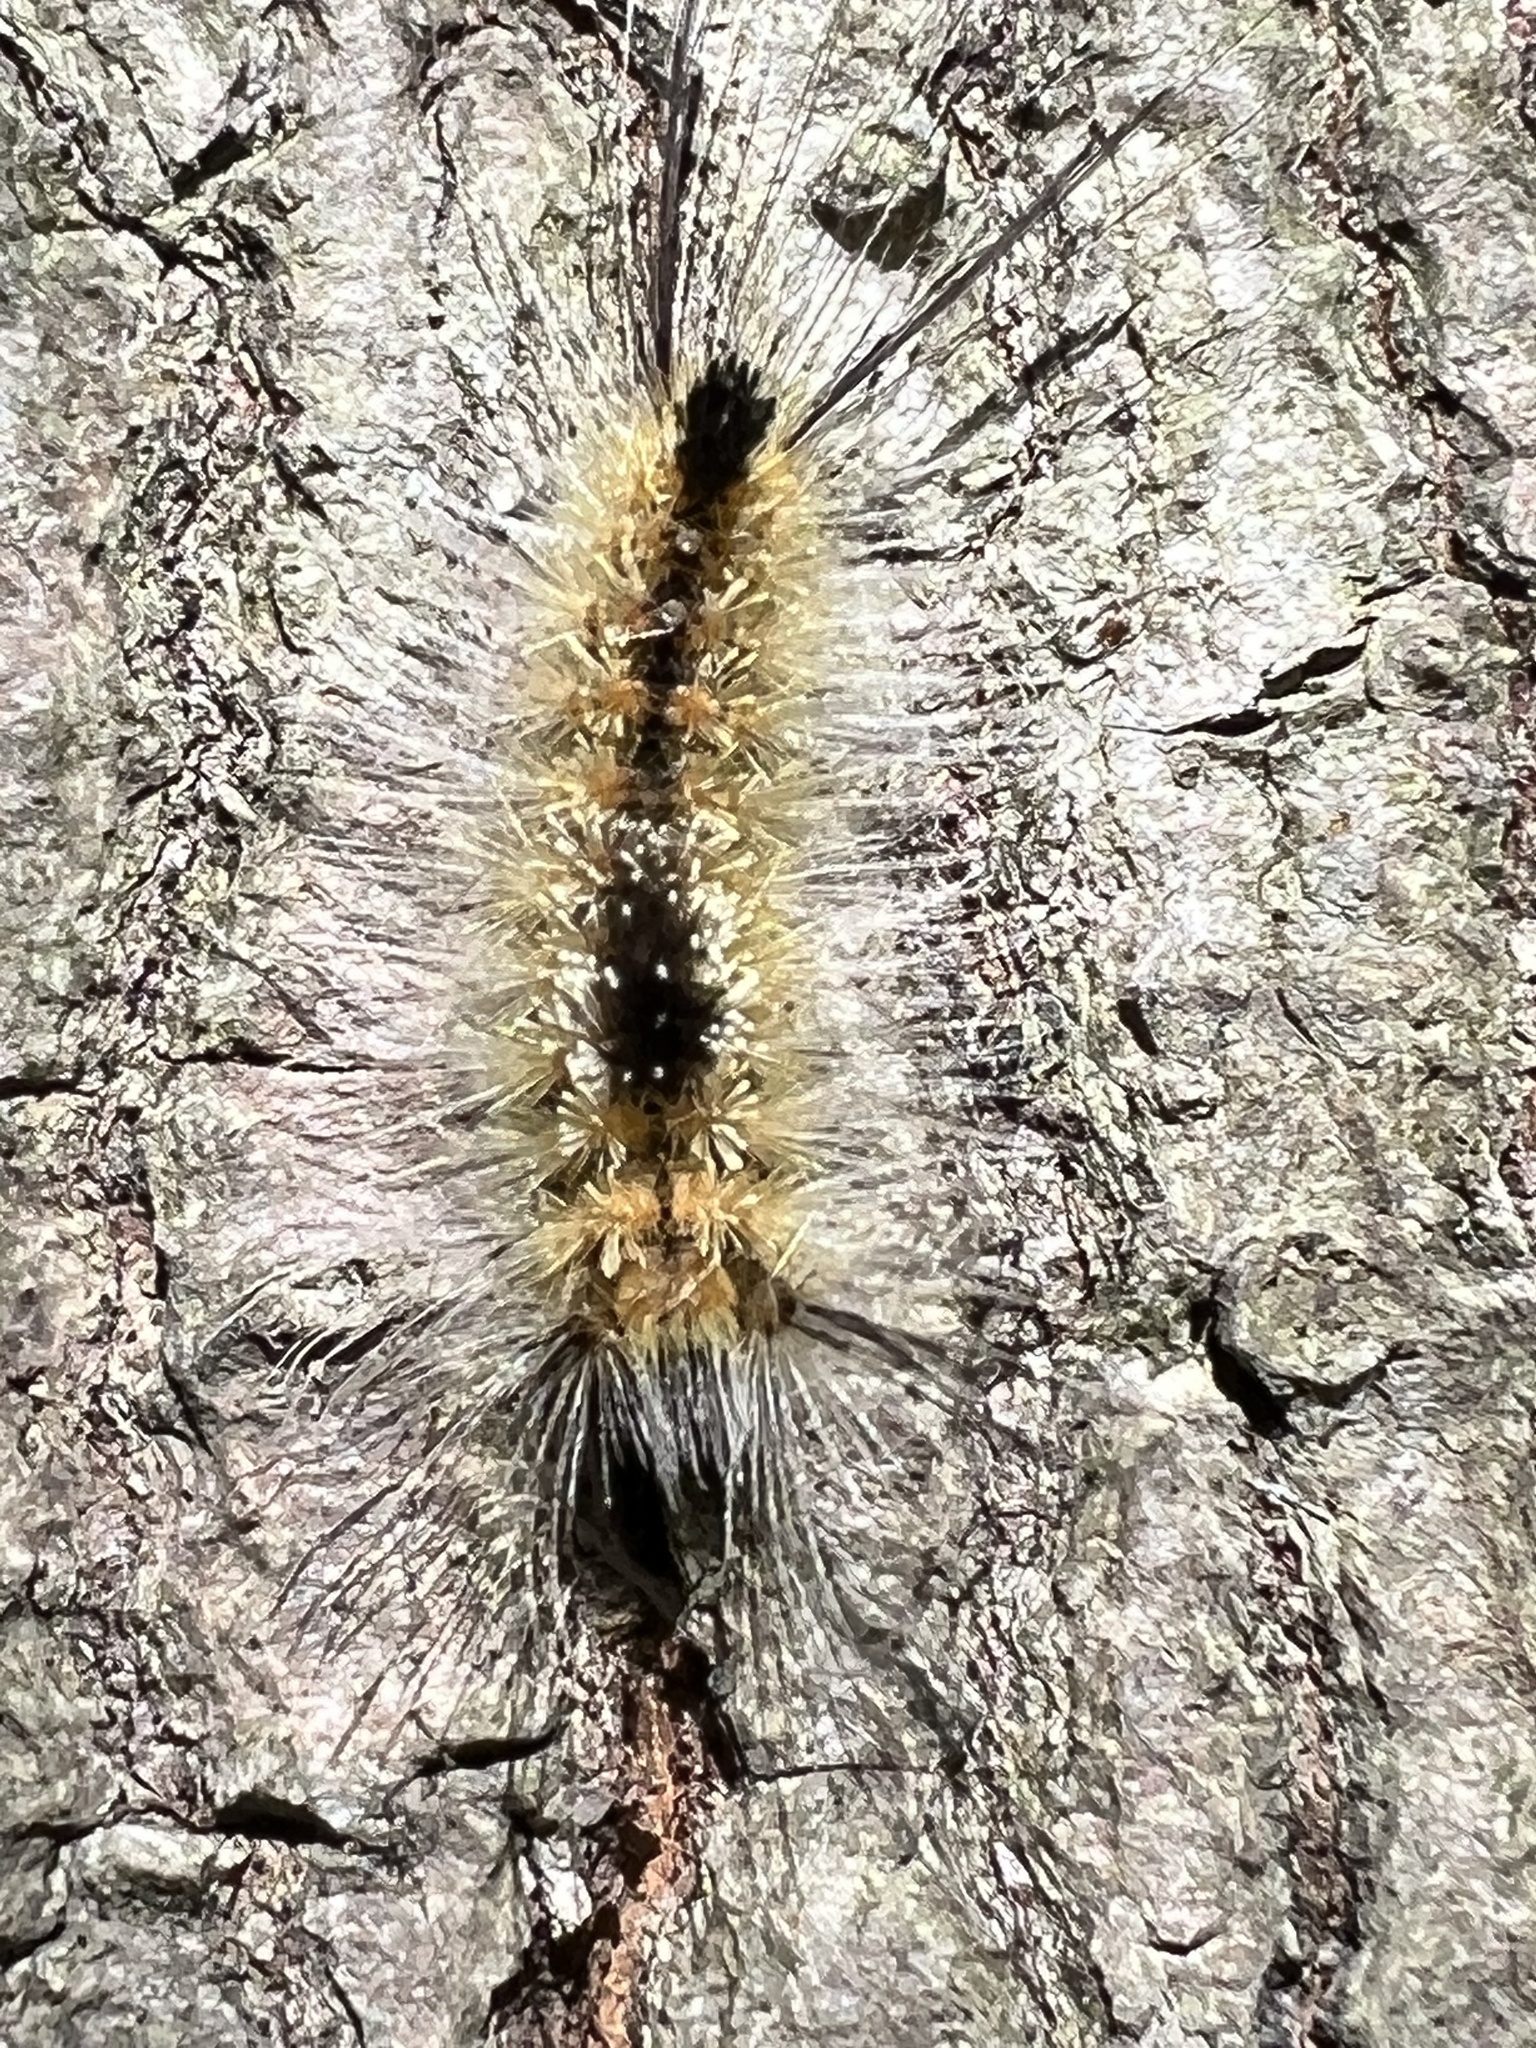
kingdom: Animalia
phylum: Arthropoda
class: Insecta
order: Lepidoptera
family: Erebidae
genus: Dasychira
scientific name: Dasychira basiflava
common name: Yellow-based tussock moth
